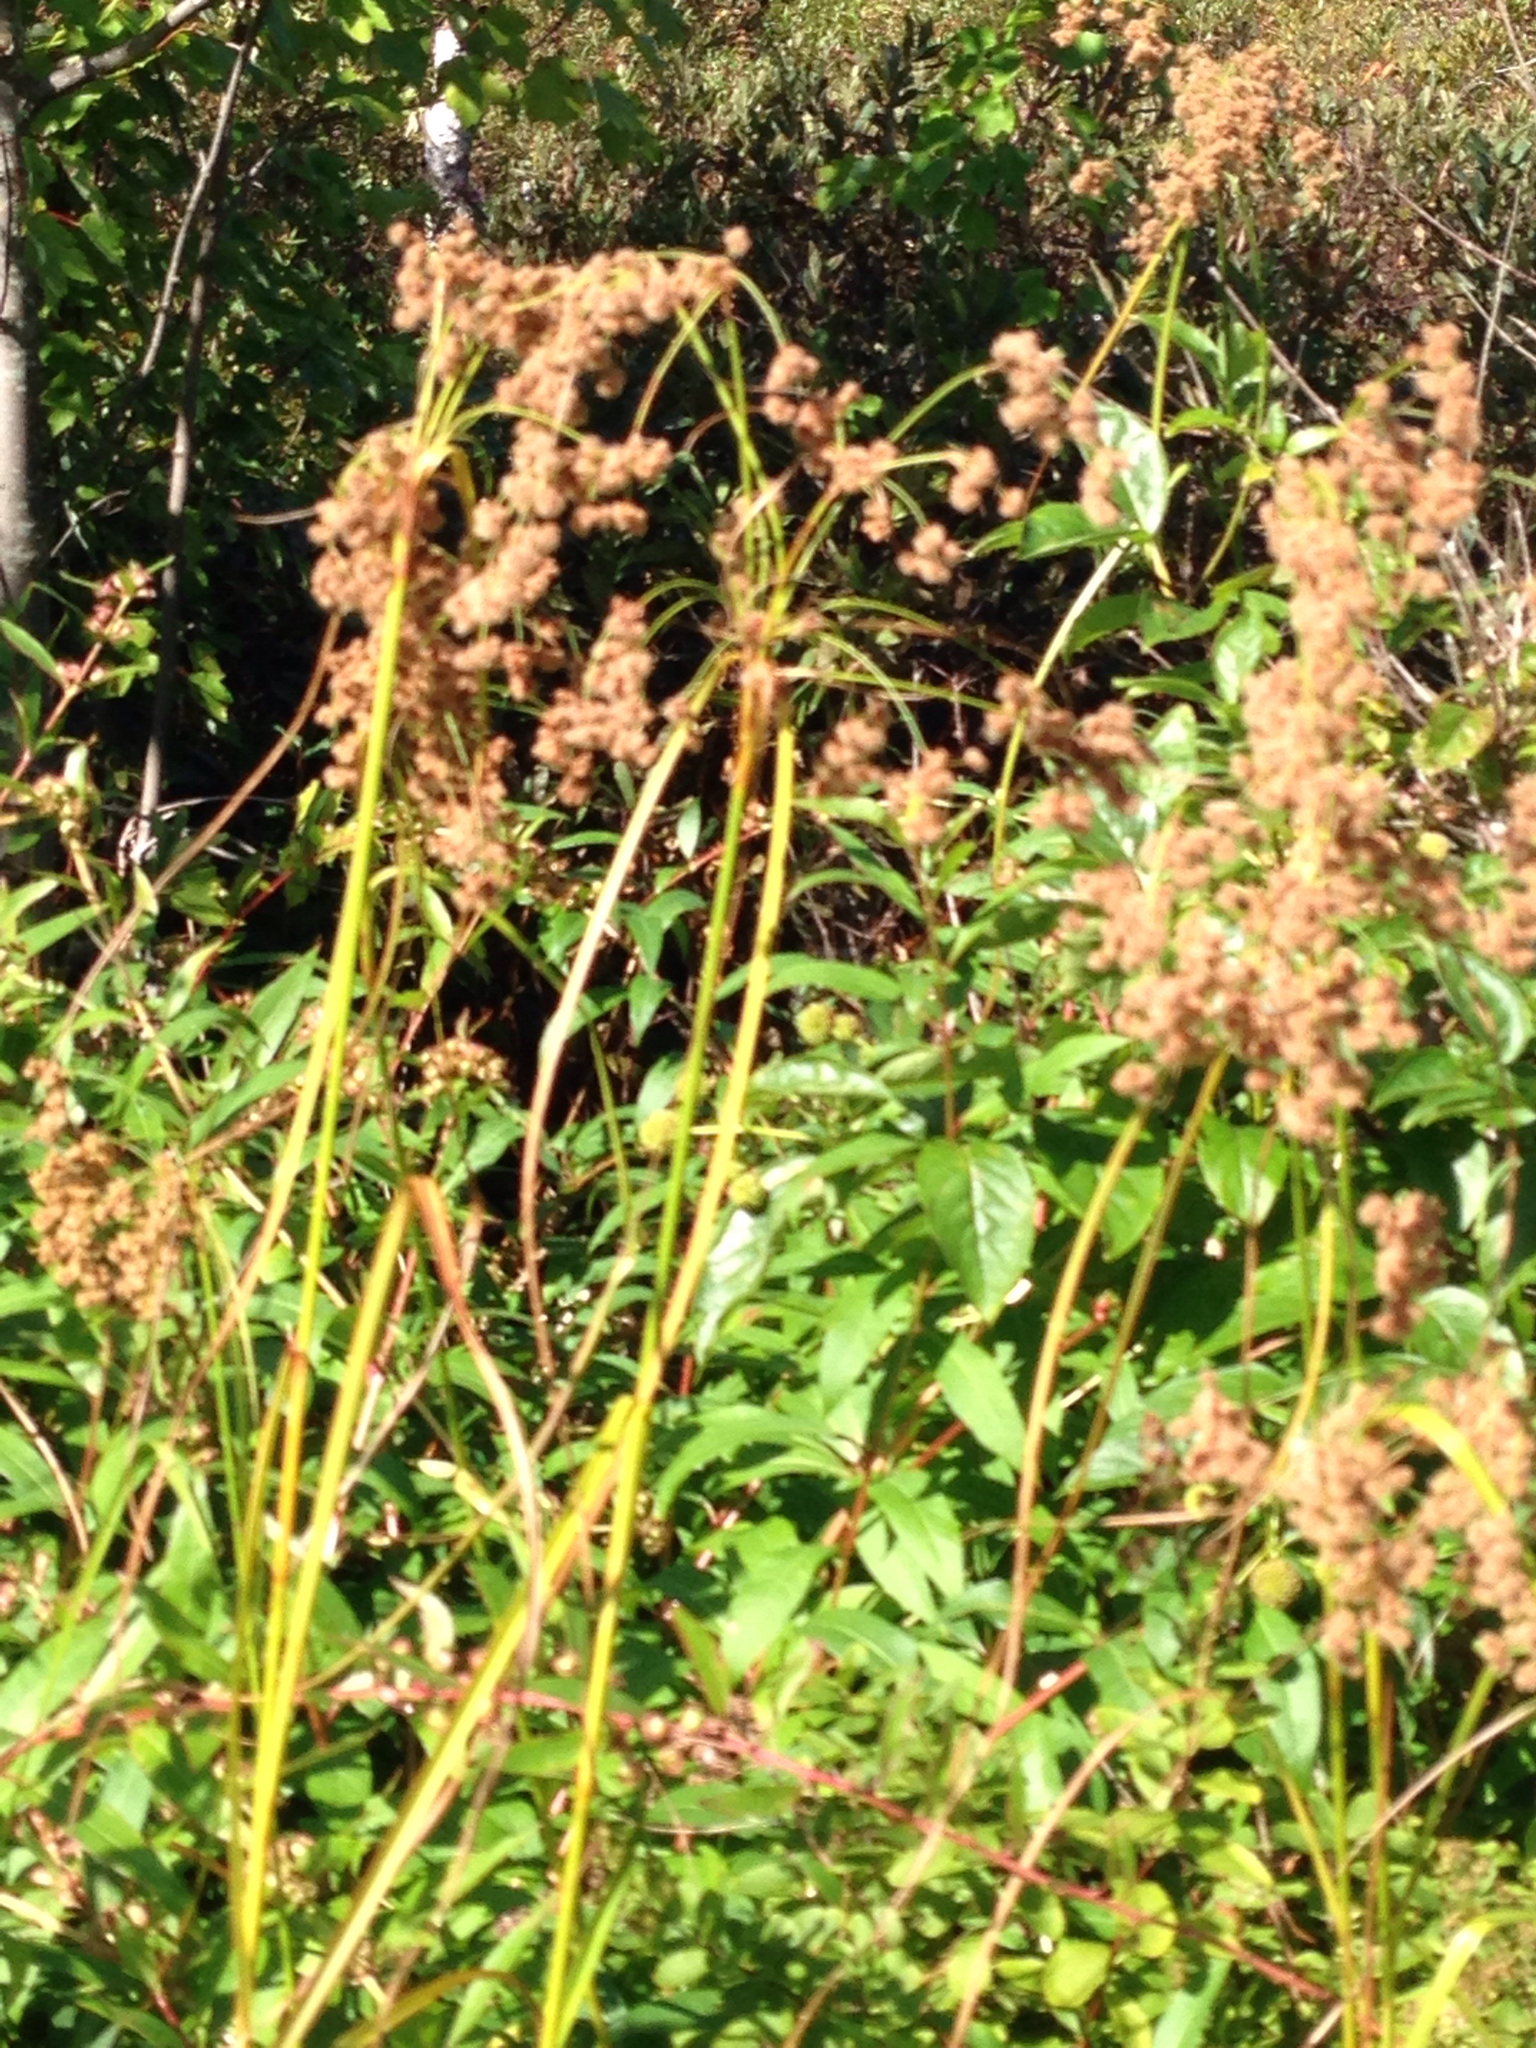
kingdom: Plantae
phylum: Tracheophyta
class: Liliopsida
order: Poales
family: Cyperaceae
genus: Scirpus
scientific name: Scirpus cyperinus
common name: Black-sheathed bulrush
